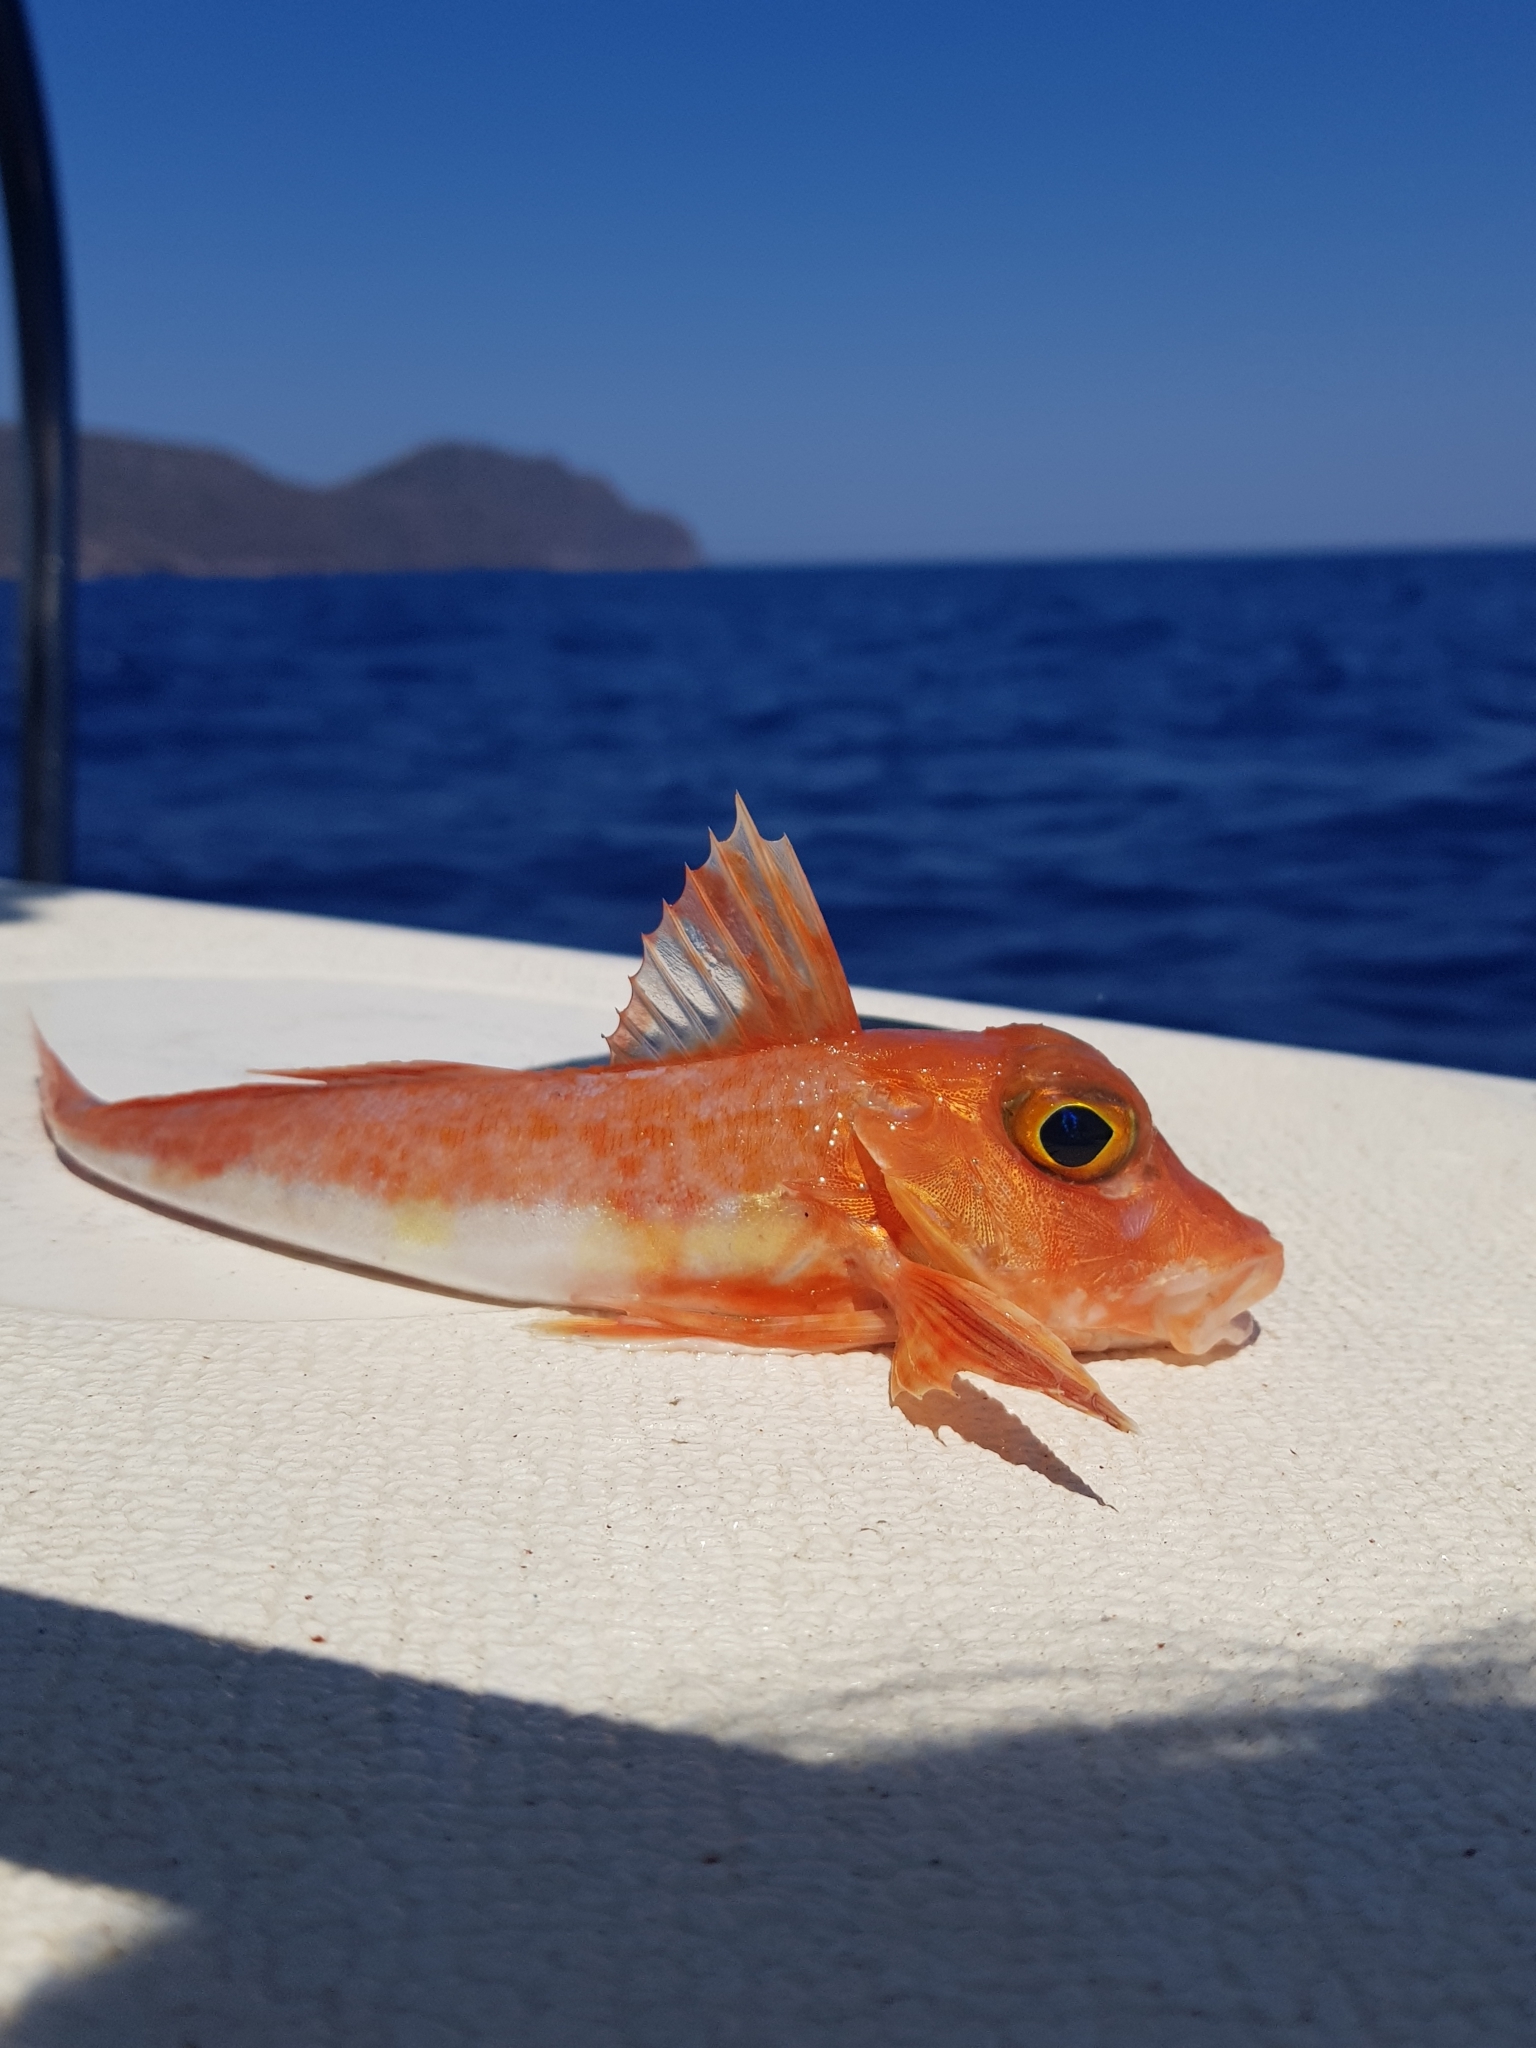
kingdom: Animalia
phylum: Chordata
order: Scorpaeniformes
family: Triglidae
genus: Chelidonichthys
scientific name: Chelidonichthys cuculus
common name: Red gurnard
